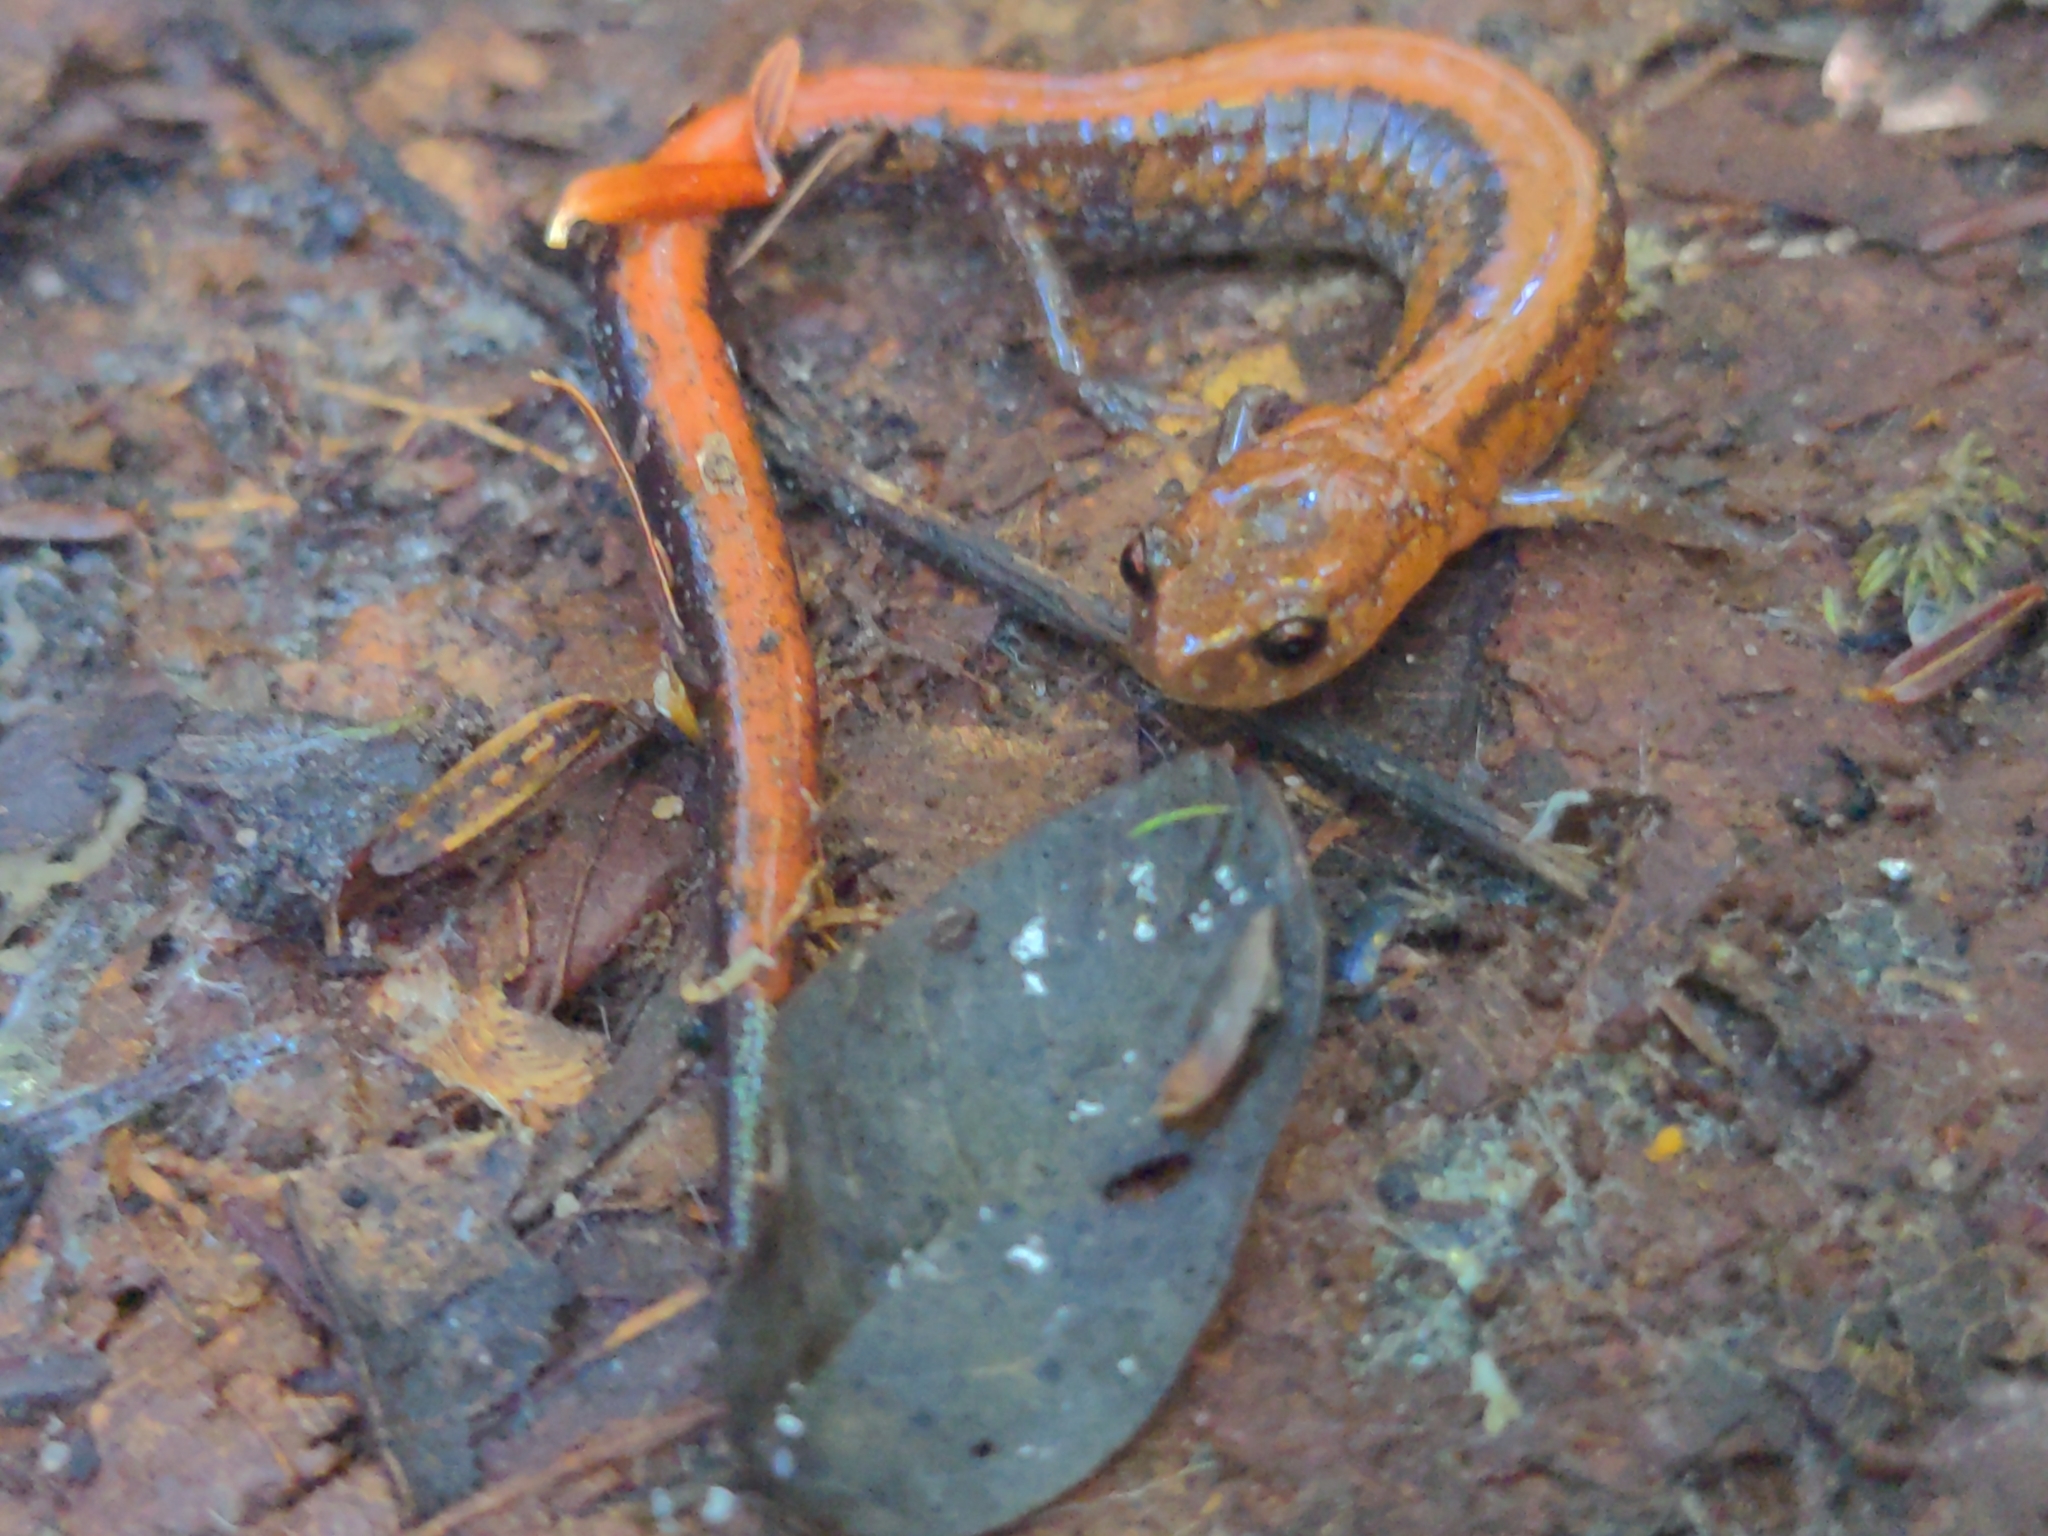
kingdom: Animalia
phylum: Chordata
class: Amphibia
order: Caudata
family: Plethodontidae
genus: Plethodon
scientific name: Plethodon cinereus
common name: Redback salamander
